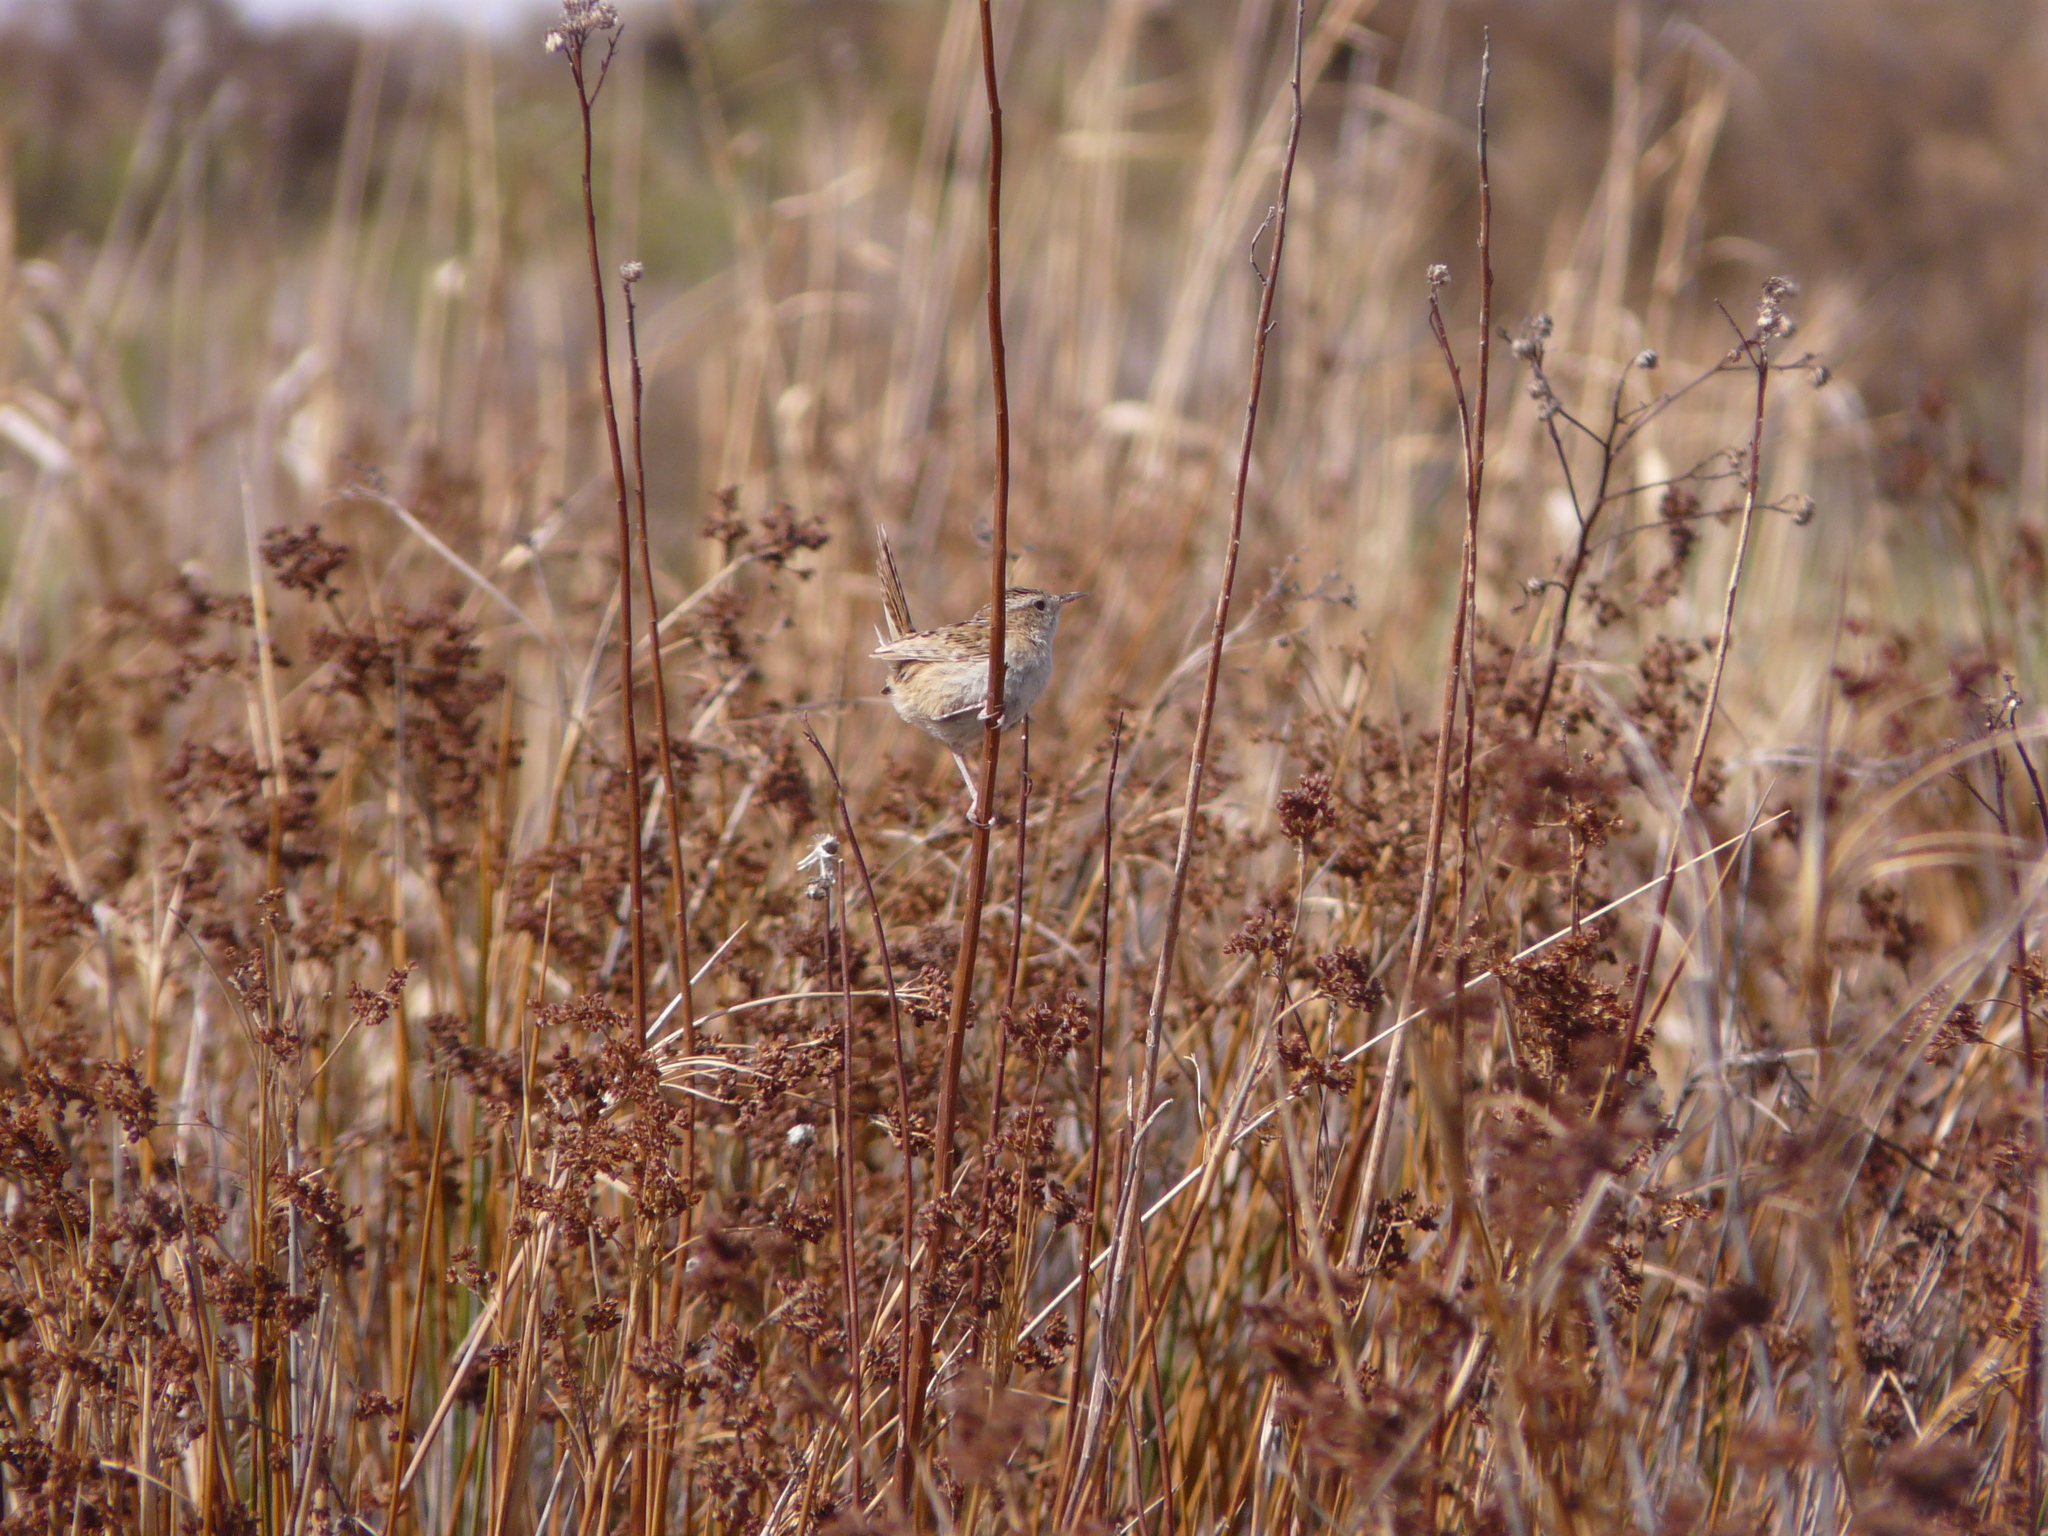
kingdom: Animalia
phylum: Chordata
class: Aves
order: Passeriformes
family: Troglodytidae
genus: Cistothorus
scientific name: Cistothorus platensis
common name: Sedge wren
